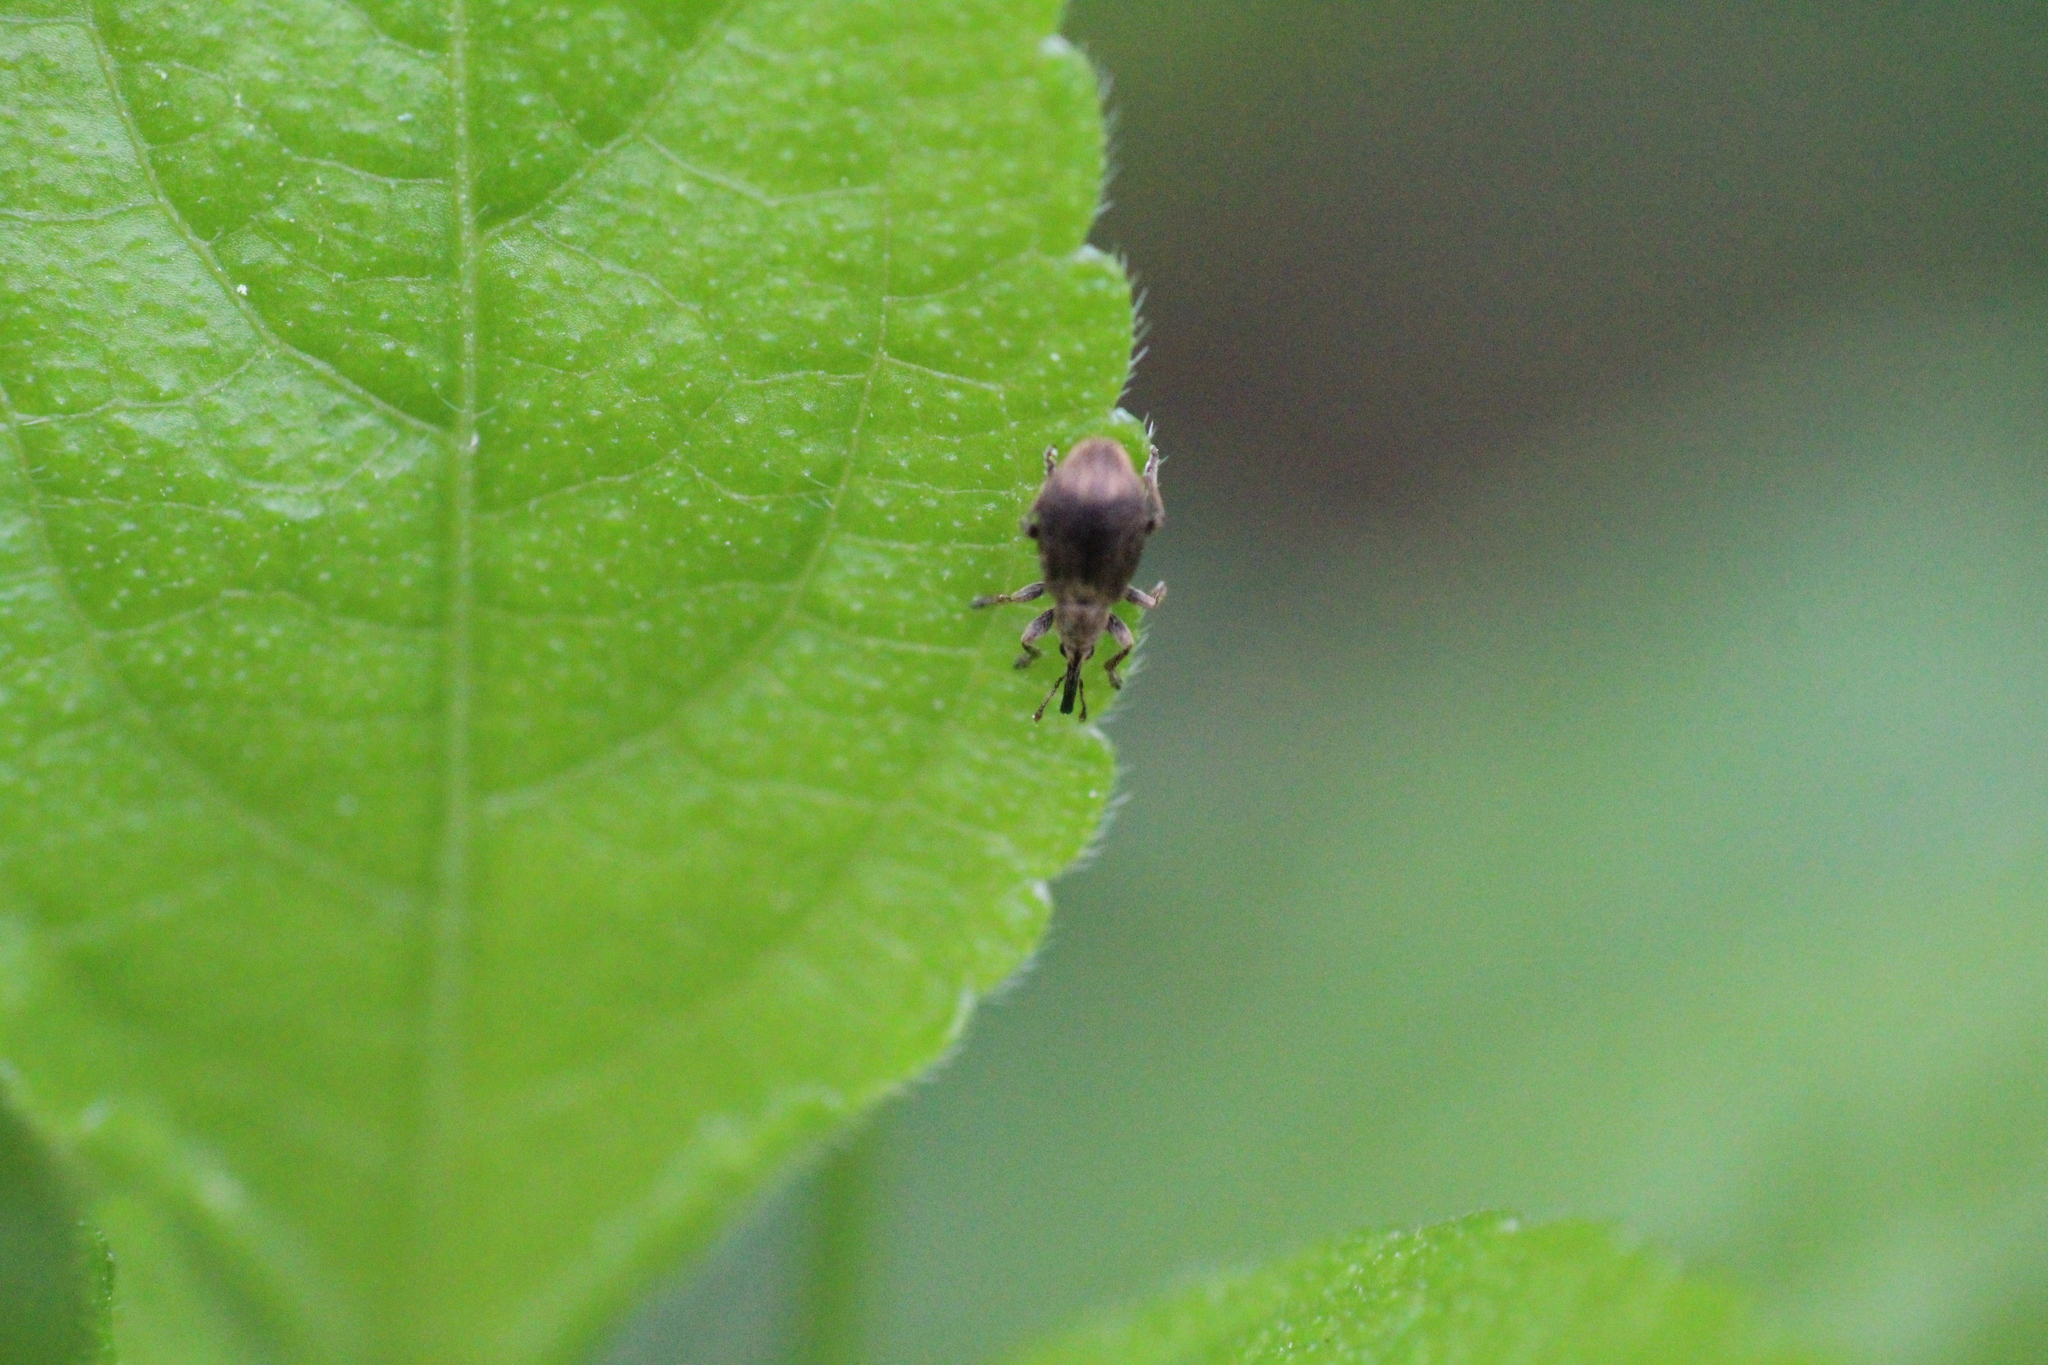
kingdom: Animalia
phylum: Arthropoda
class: Insecta
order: Coleoptera
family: Apionidae
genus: Trichopterapion
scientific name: Trichopterapion holosericeum
